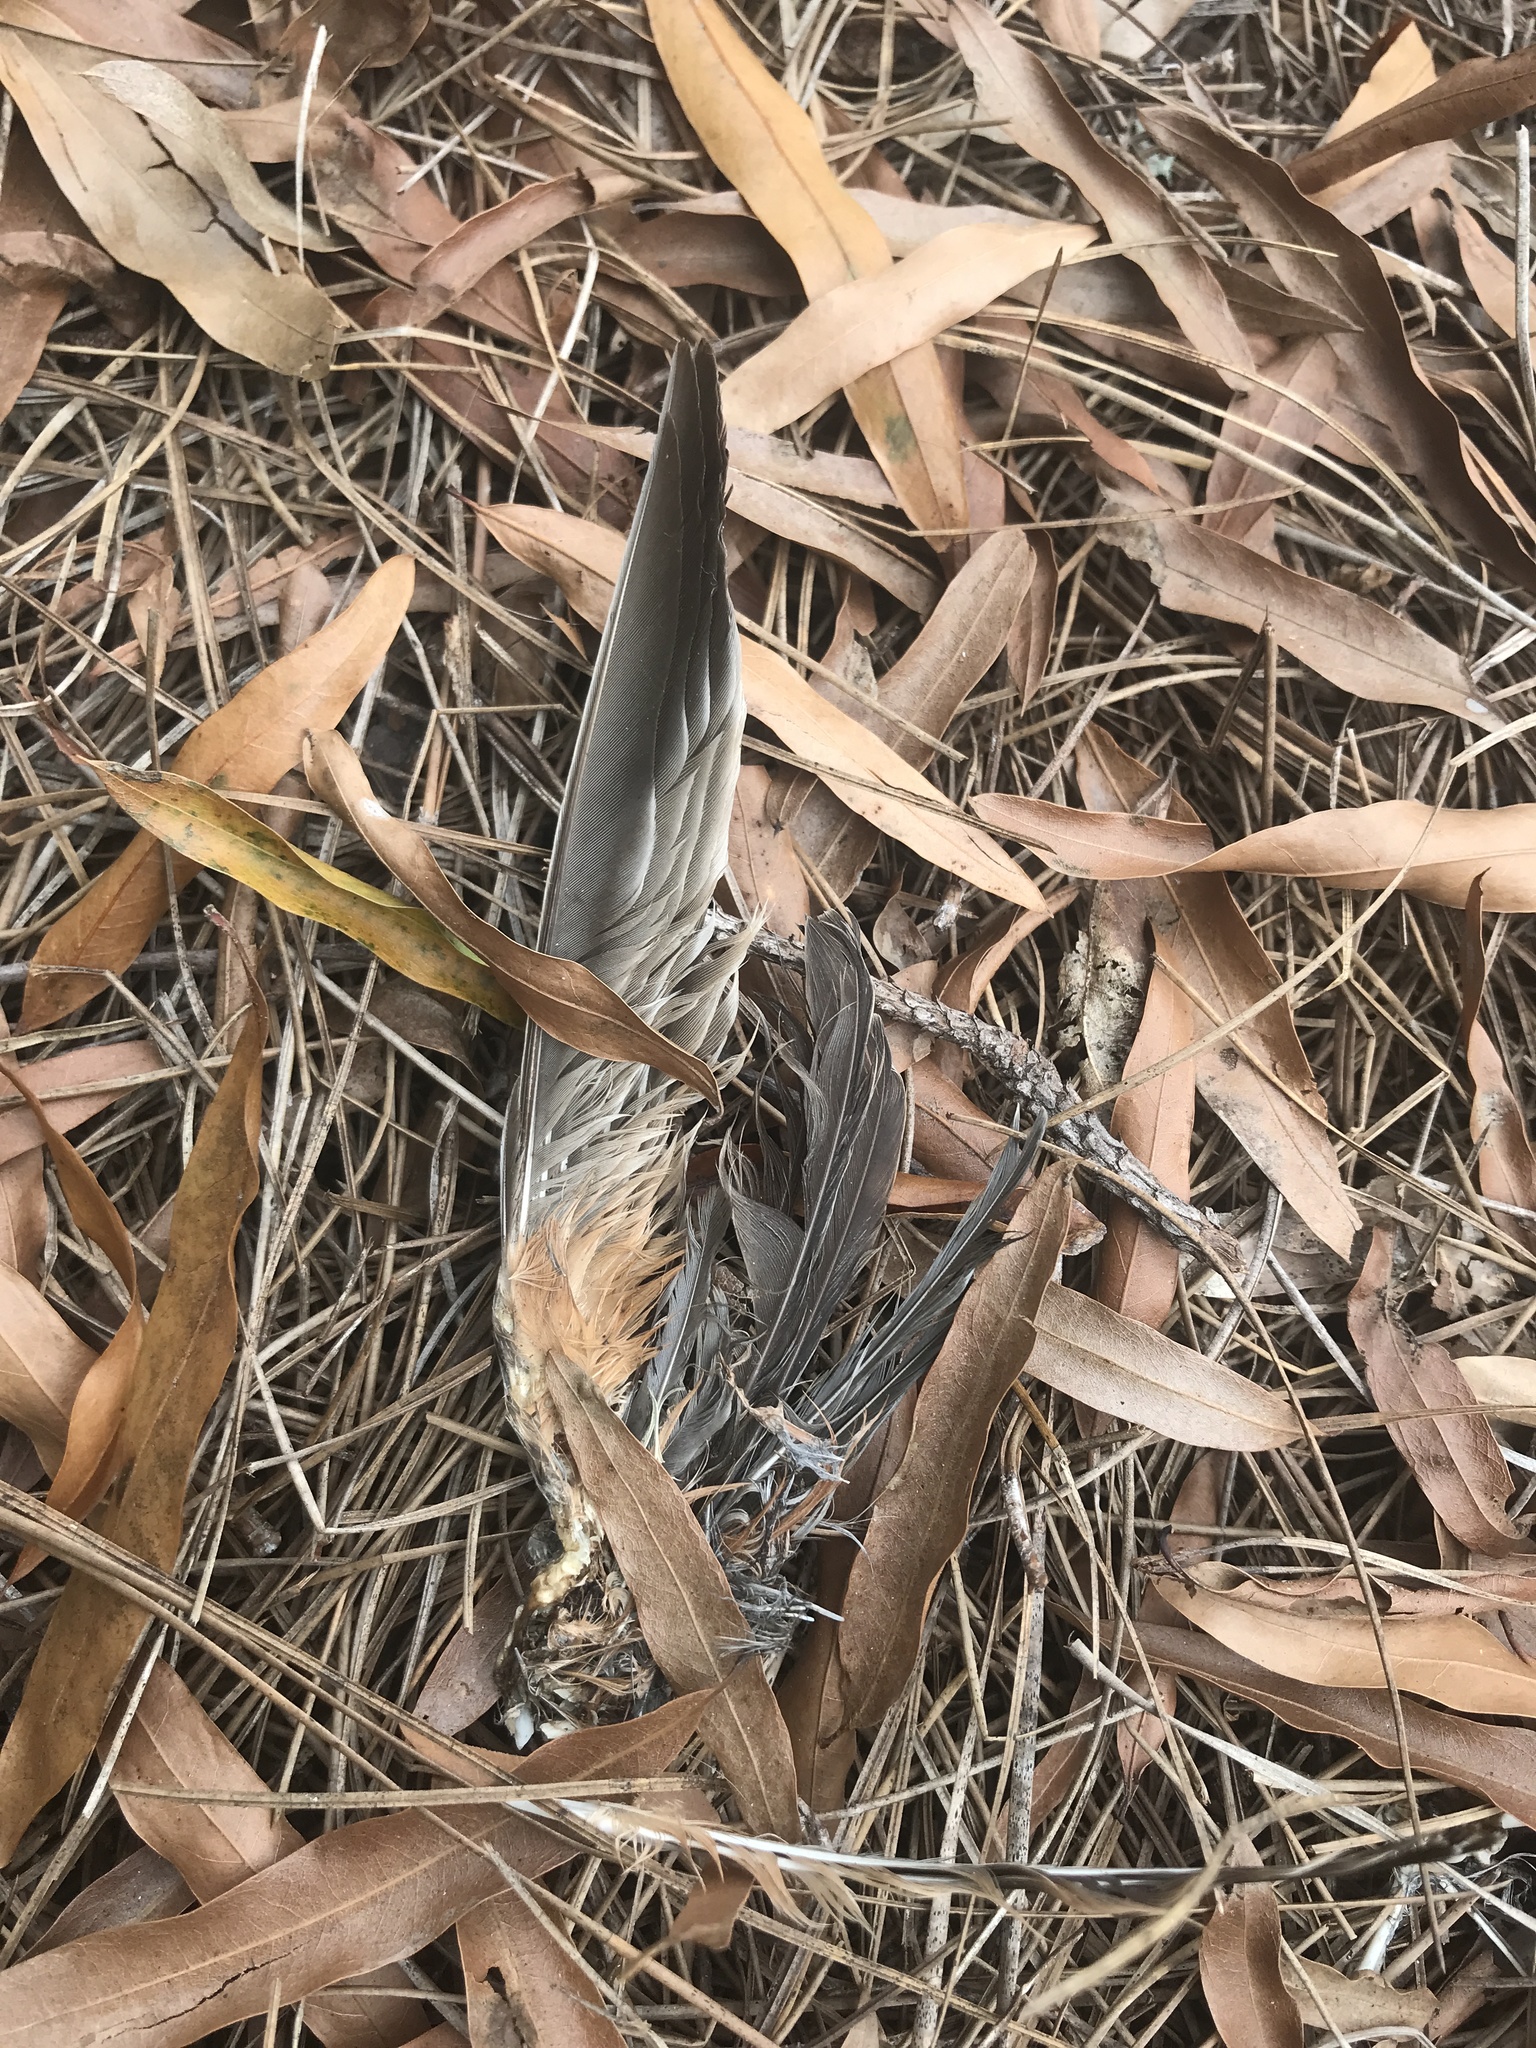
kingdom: Animalia
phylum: Chordata
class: Aves
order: Passeriformes
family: Turdidae
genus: Turdus
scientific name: Turdus migratorius
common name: American robin
